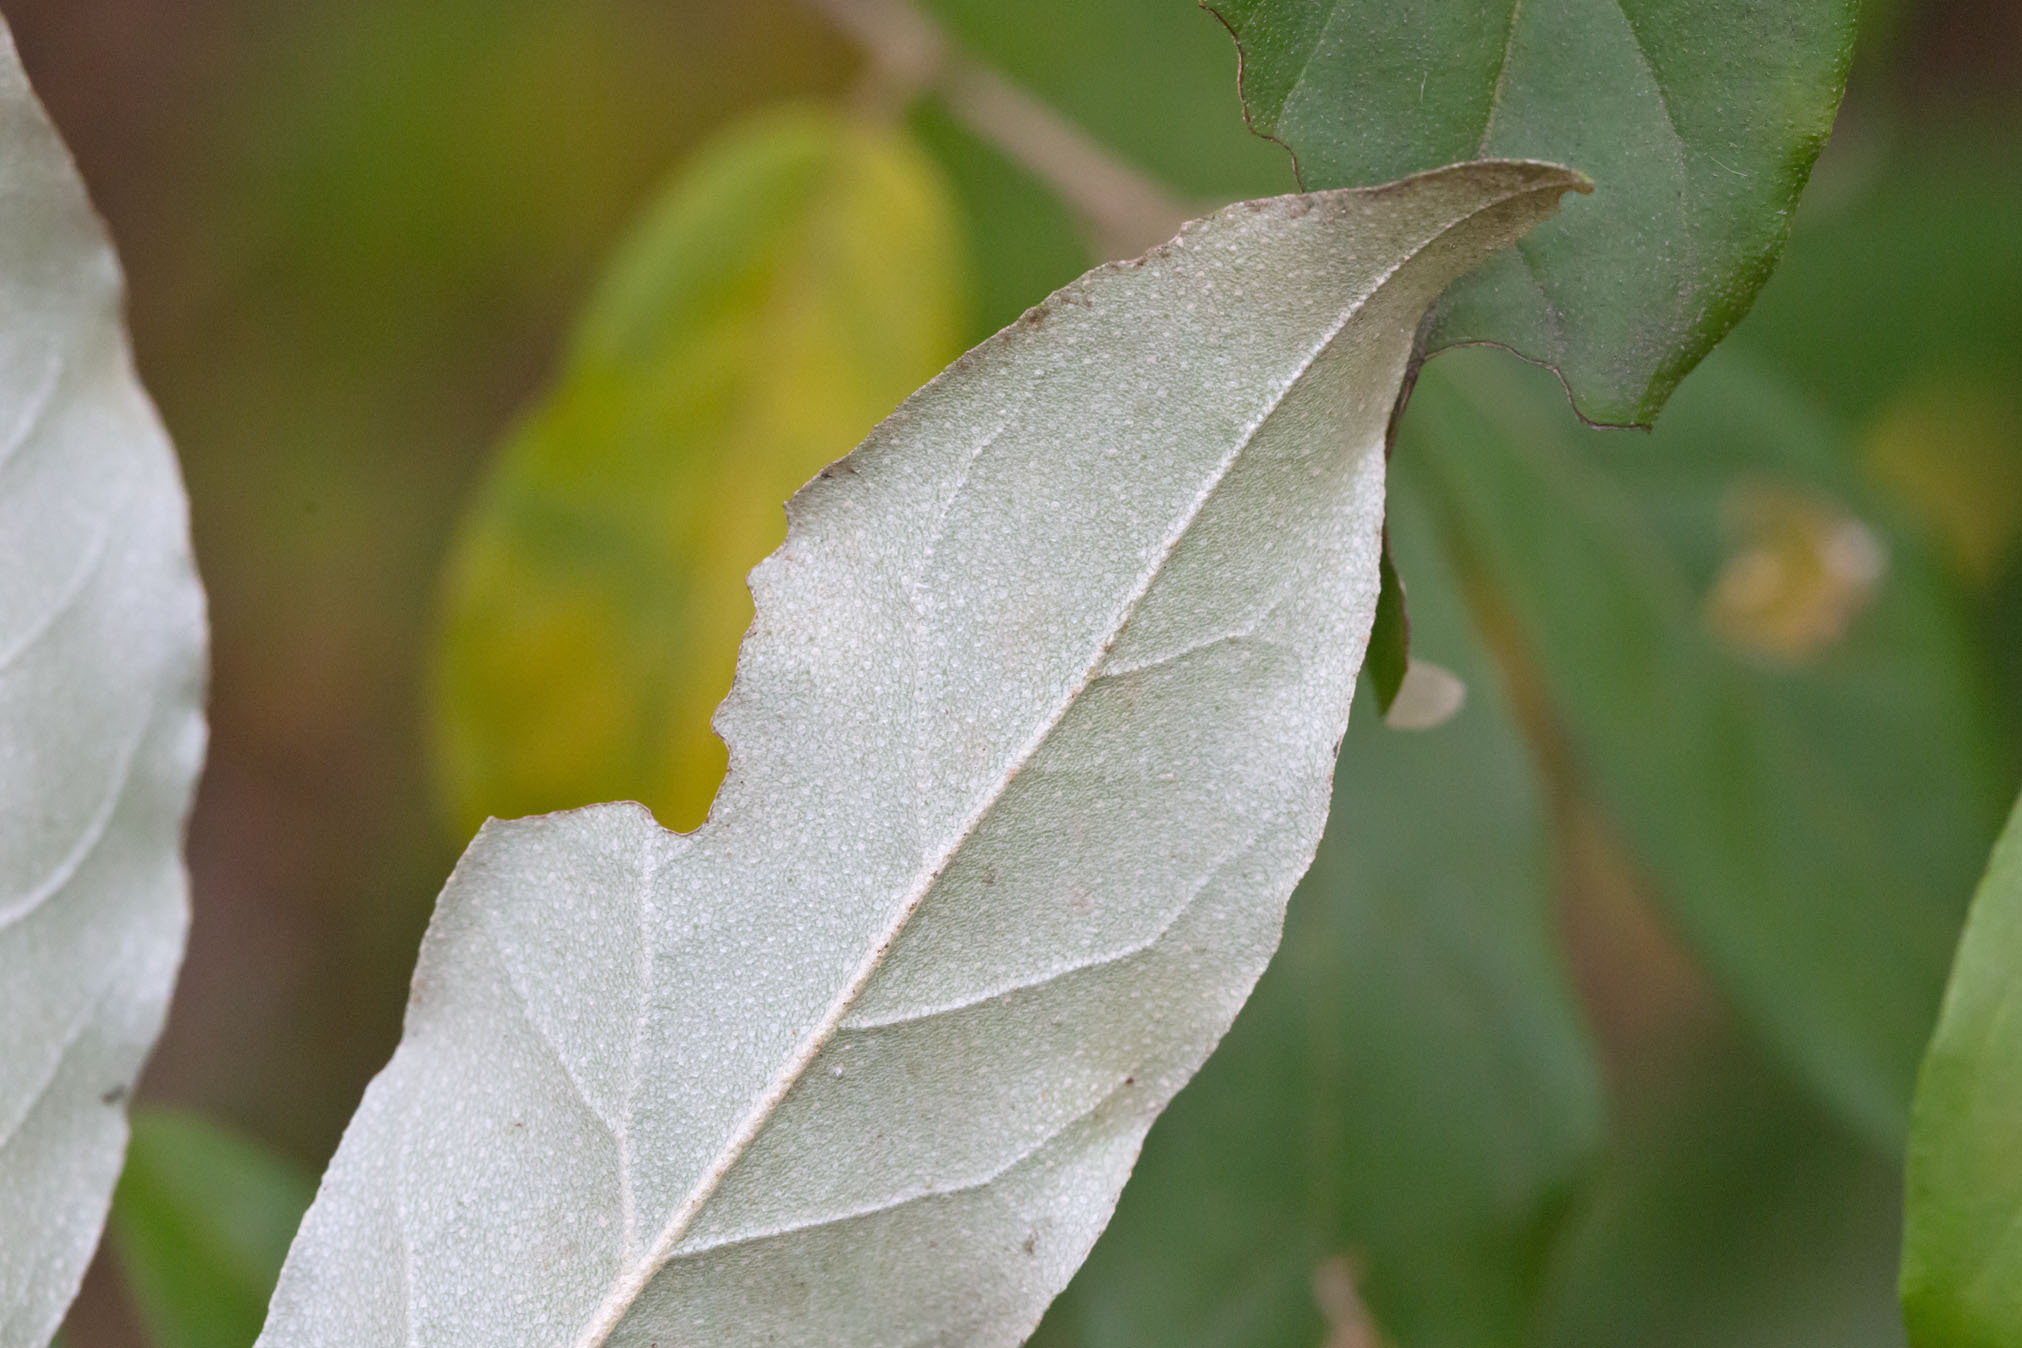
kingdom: Plantae
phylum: Tracheophyta
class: Magnoliopsida
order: Rosales
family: Elaeagnaceae
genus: Elaeagnus
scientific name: Elaeagnus umbellata
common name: Autumn olive
